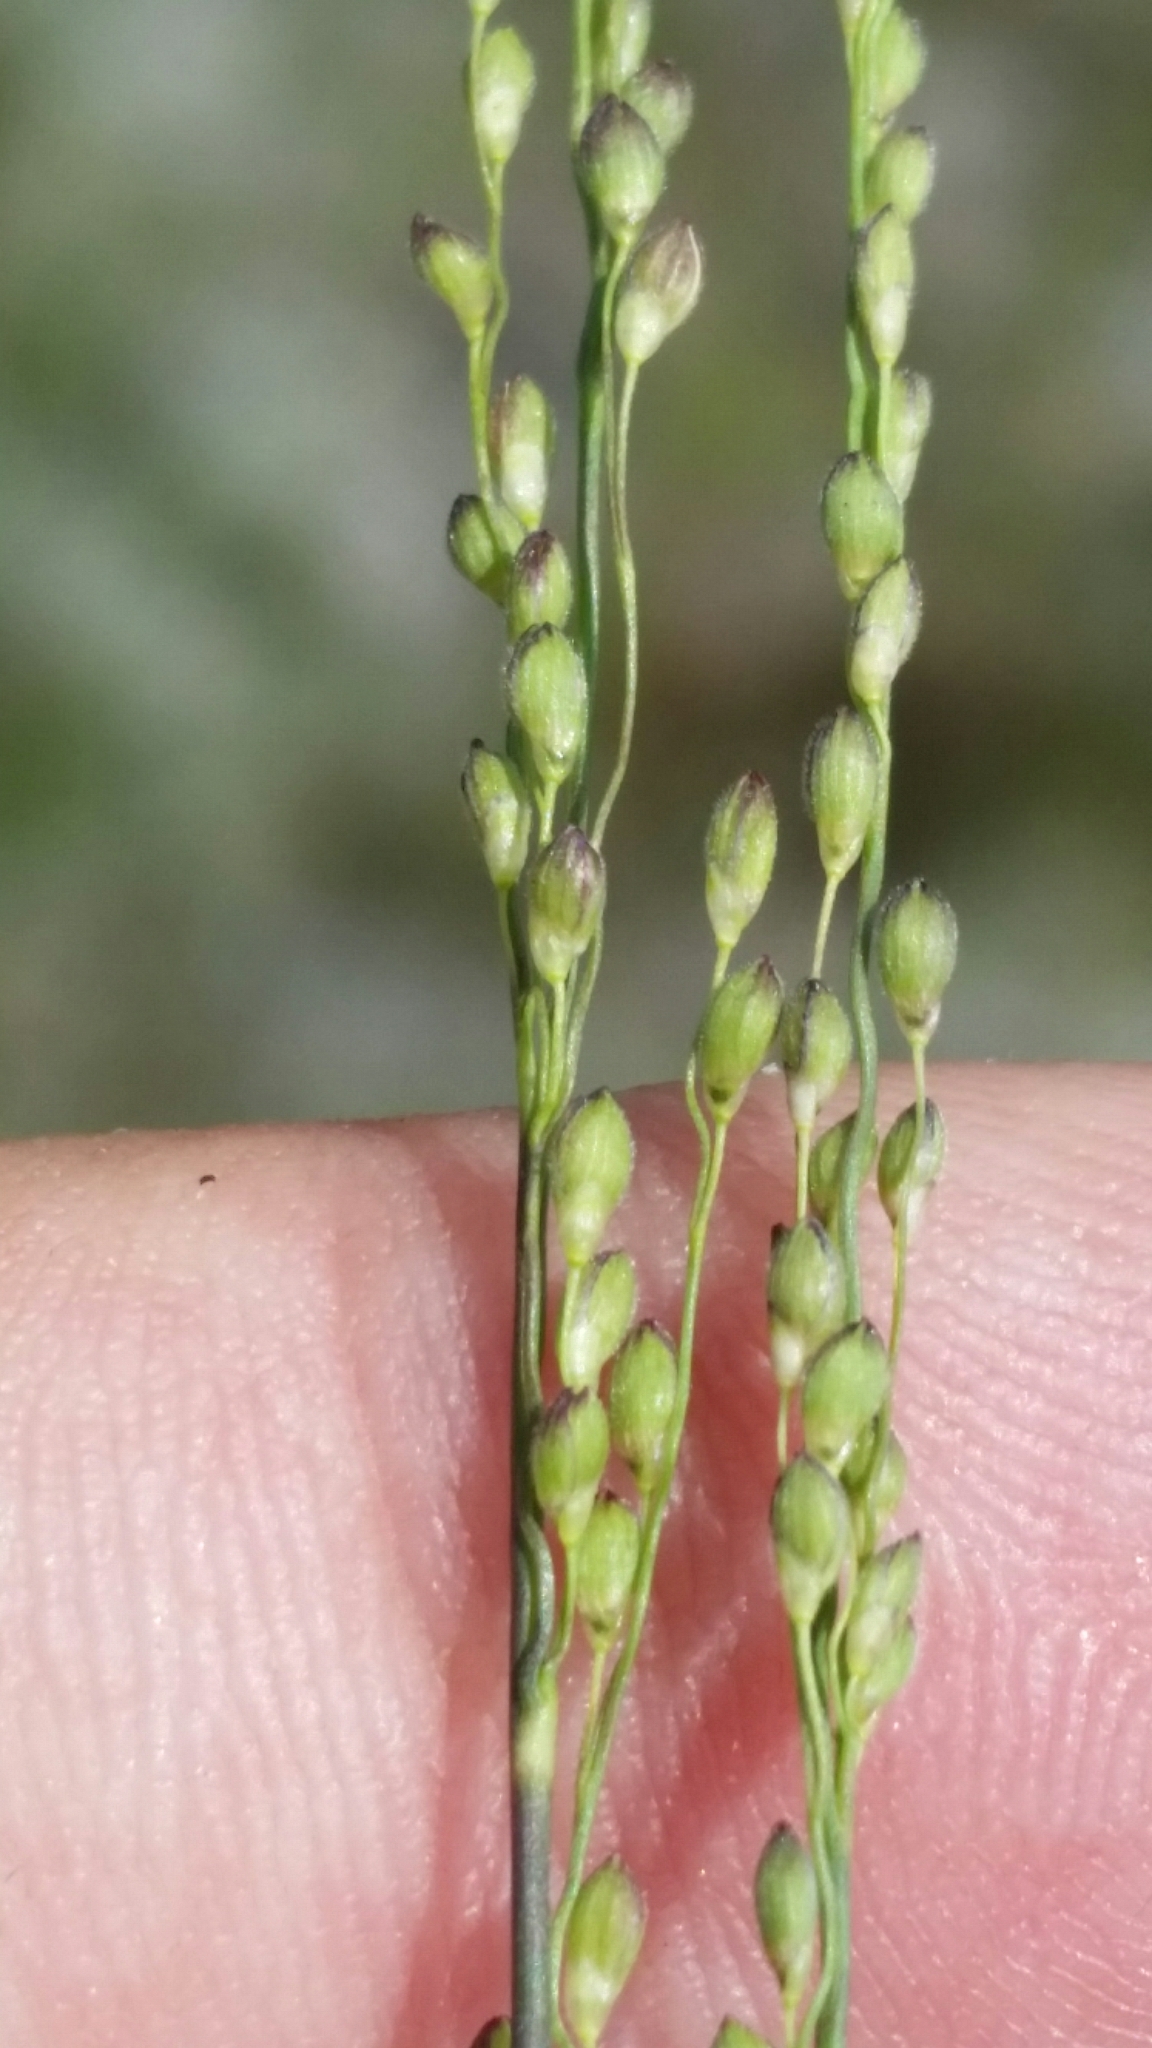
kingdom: Plantae
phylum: Tracheophyta
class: Liliopsida
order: Poales
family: Poaceae
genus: Dichanthelium
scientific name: Dichanthelium neuranthum
